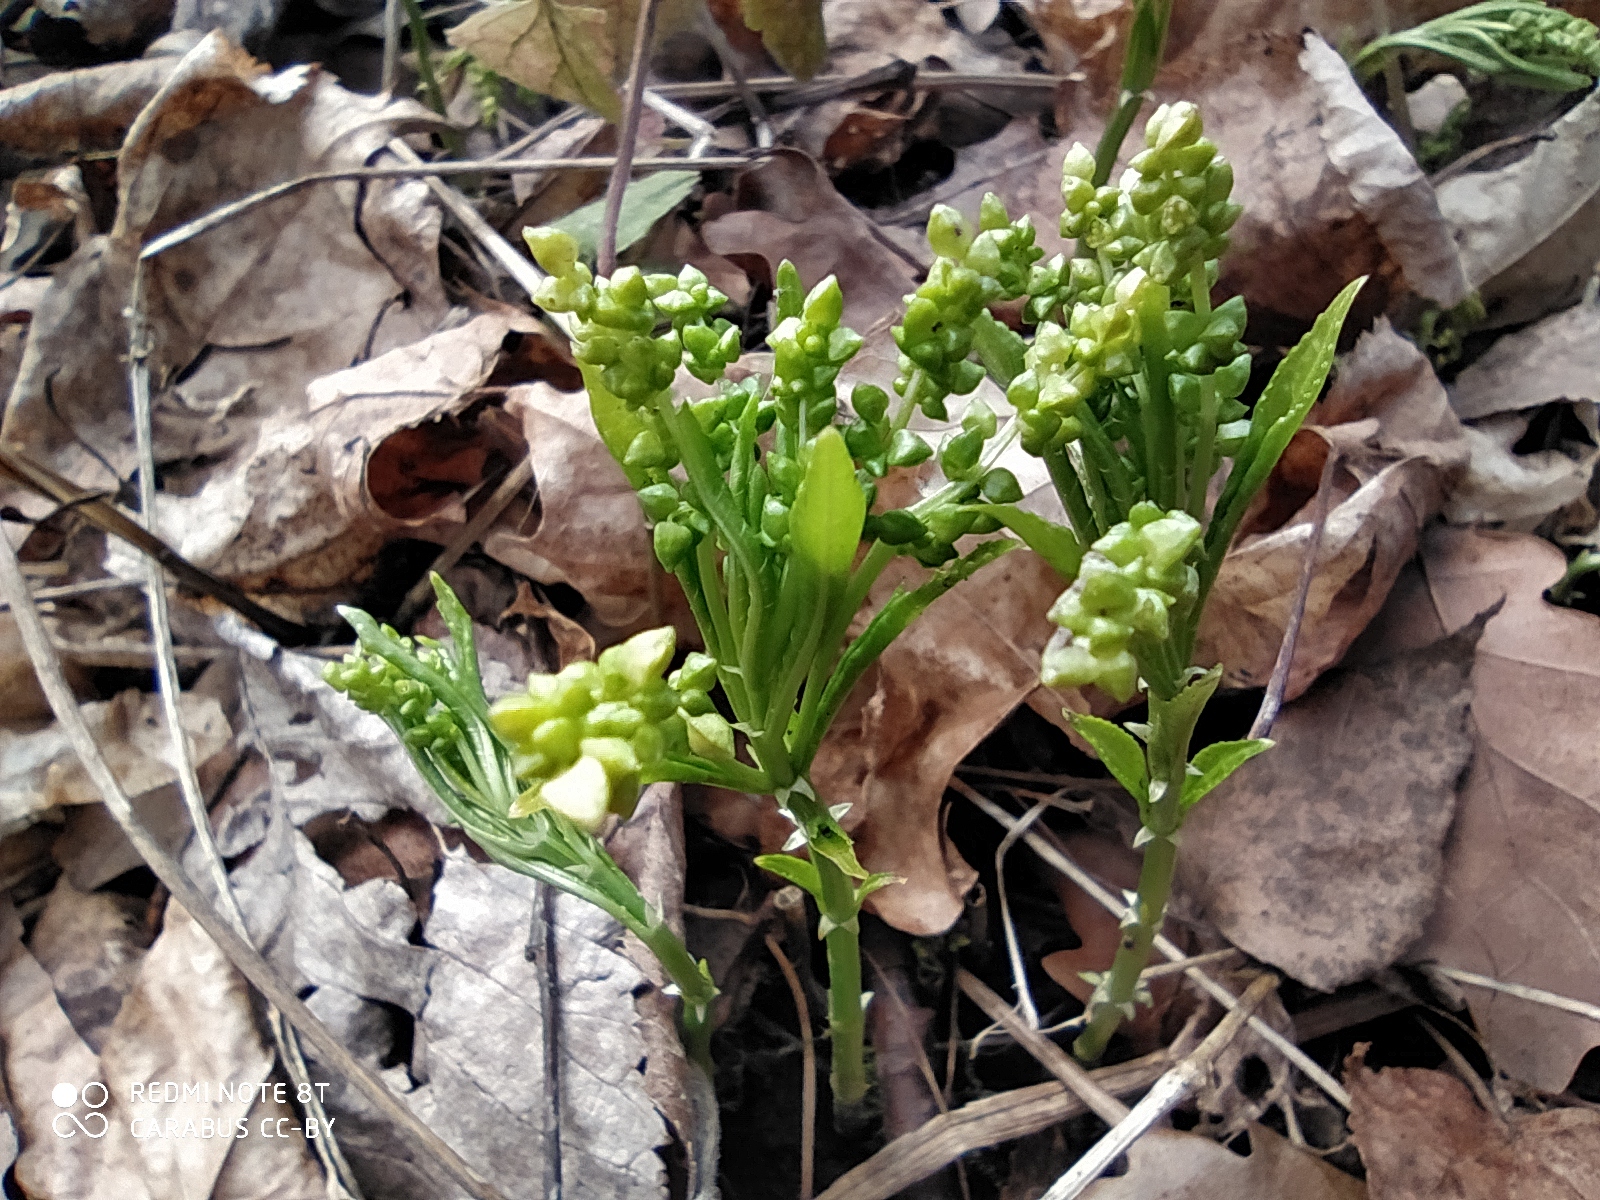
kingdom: Plantae
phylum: Tracheophyta
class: Magnoliopsida
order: Malpighiales
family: Euphorbiaceae
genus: Mercurialis
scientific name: Mercurialis perennis
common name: Dog mercury
